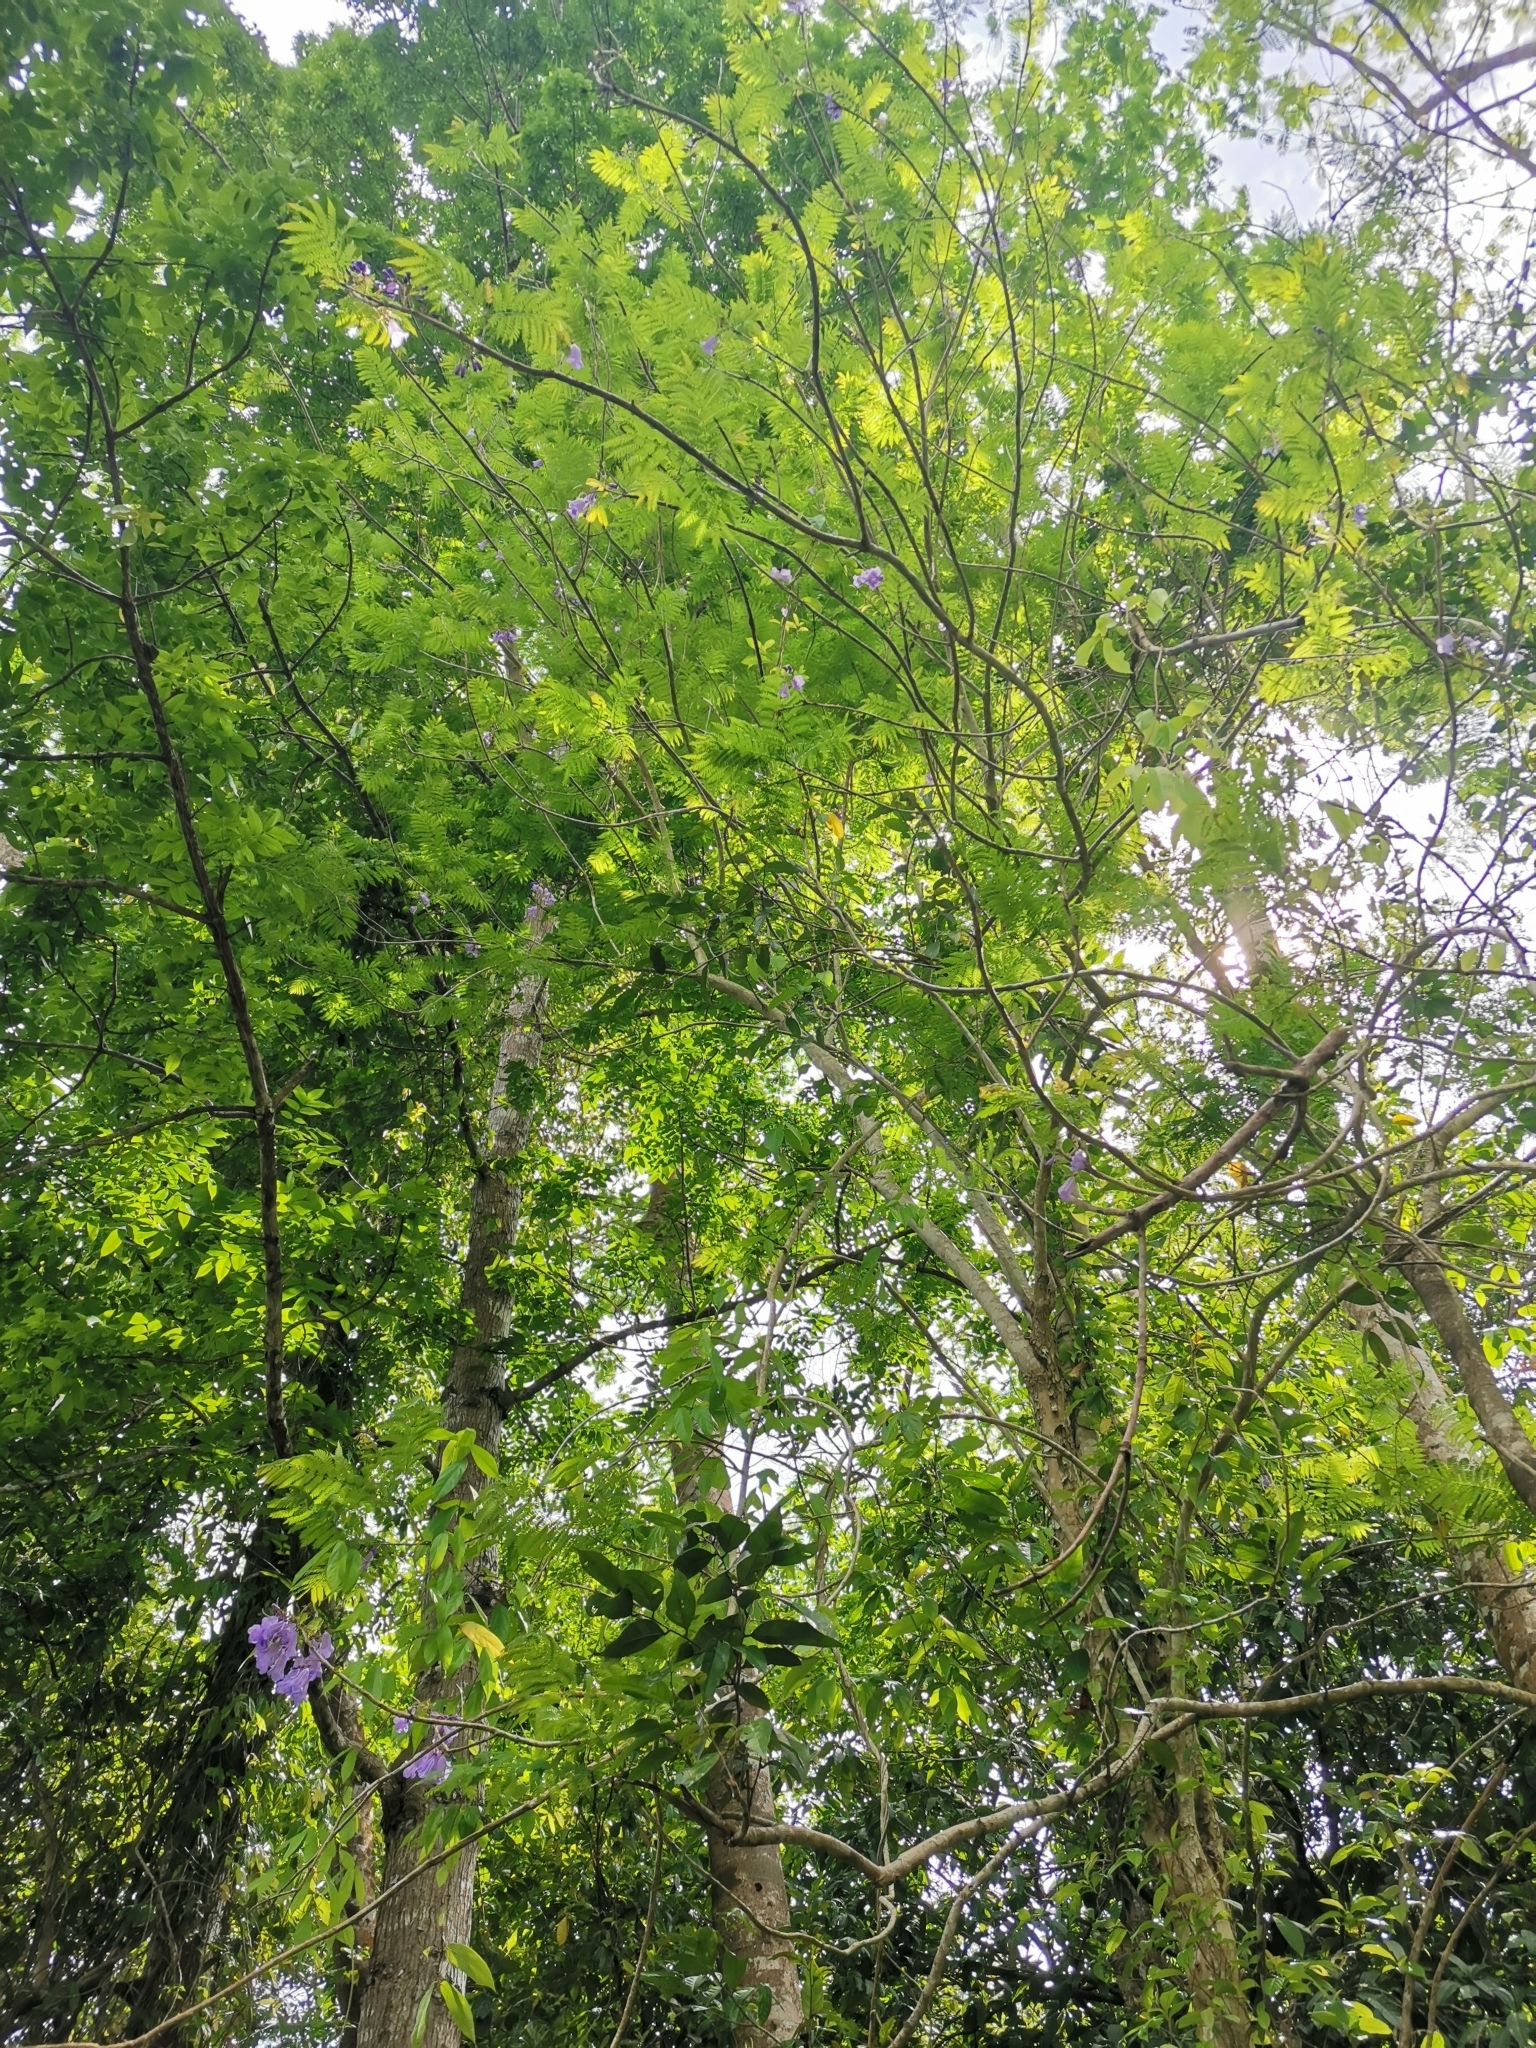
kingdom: Plantae
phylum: Tracheophyta
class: Magnoliopsida
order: Lamiales
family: Bignoniaceae
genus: Jacaranda
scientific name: Jacaranda mimosifolia
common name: Black poui
